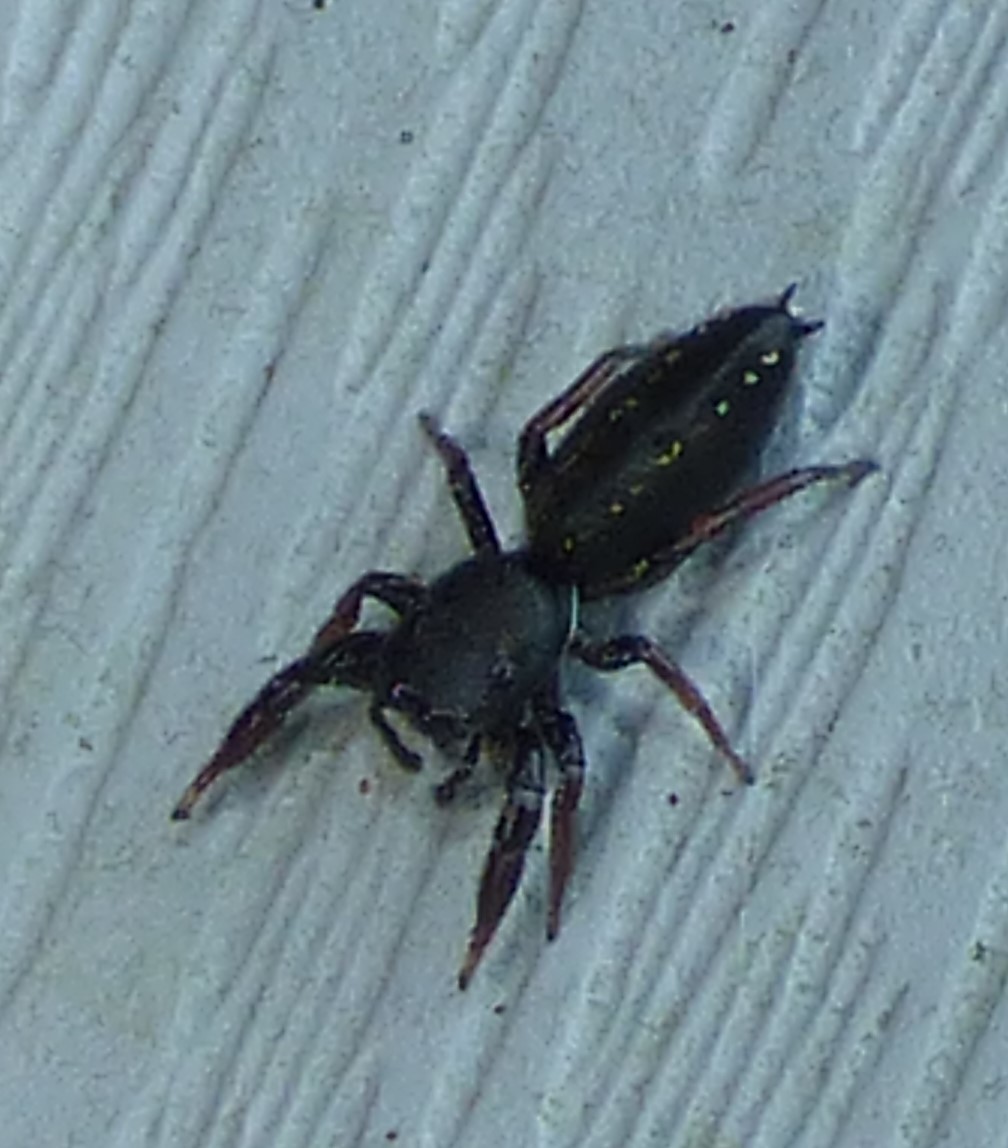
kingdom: Animalia
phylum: Arthropoda
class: Arachnida
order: Araneae
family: Salticidae
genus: Metacyrba
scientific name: Metacyrba taeniola
